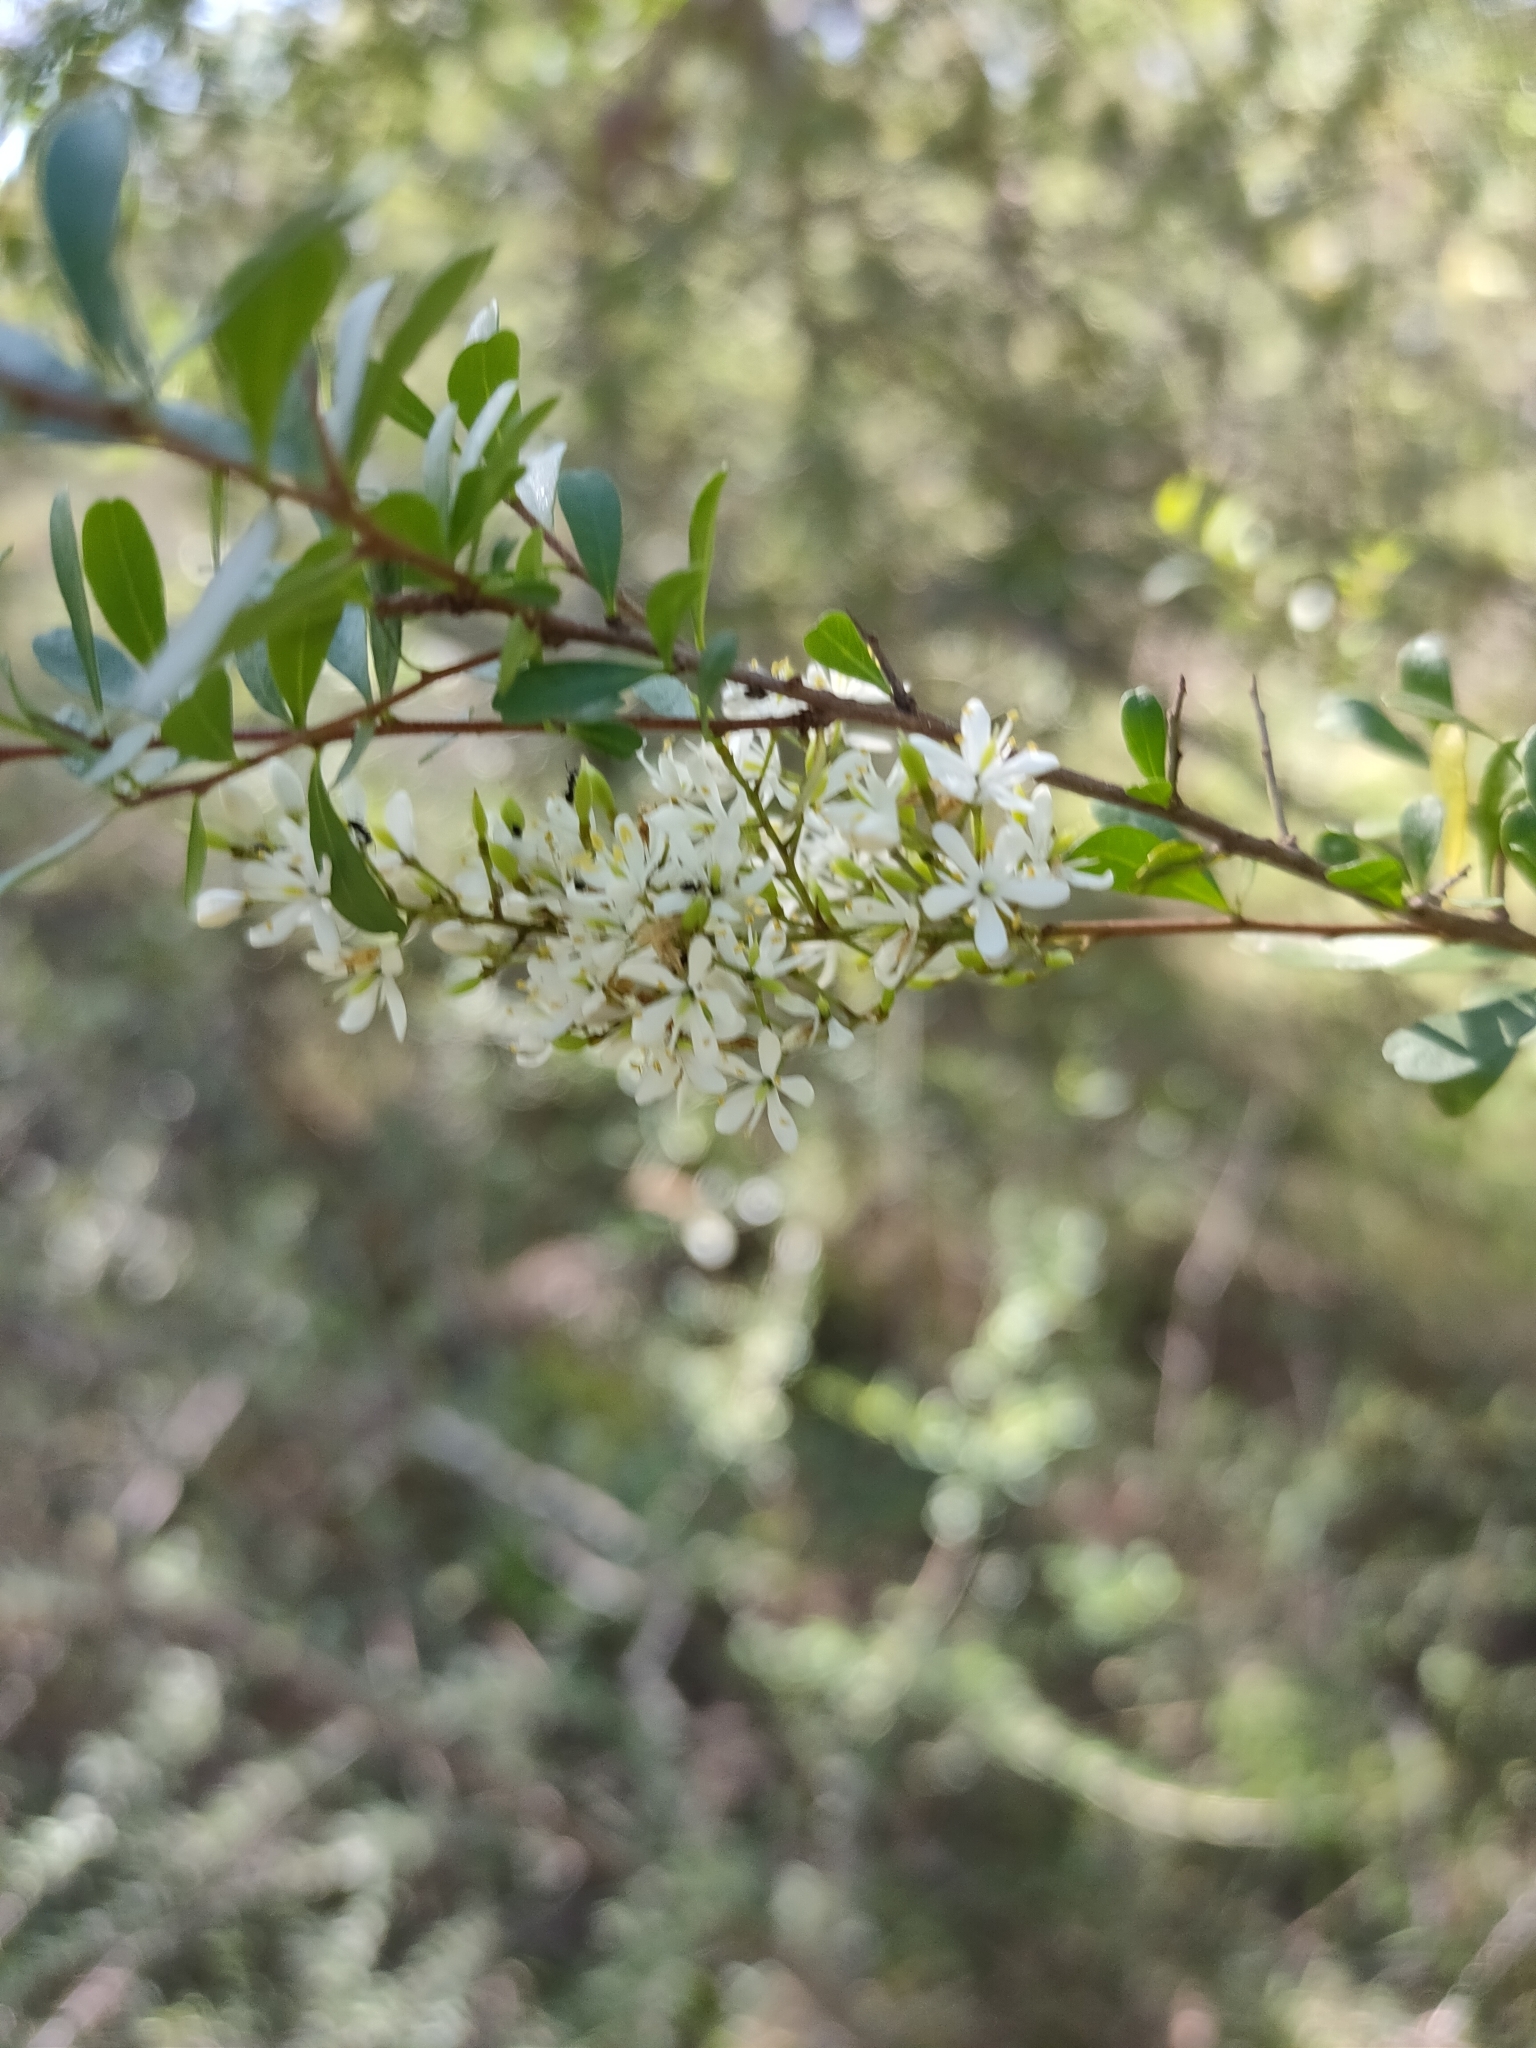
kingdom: Plantae
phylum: Tracheophyta
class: Magnoliopsida
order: Apiales
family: Pittosporaceae
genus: Bursaria
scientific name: Bursaria spinosa
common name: Australian blackthorn
